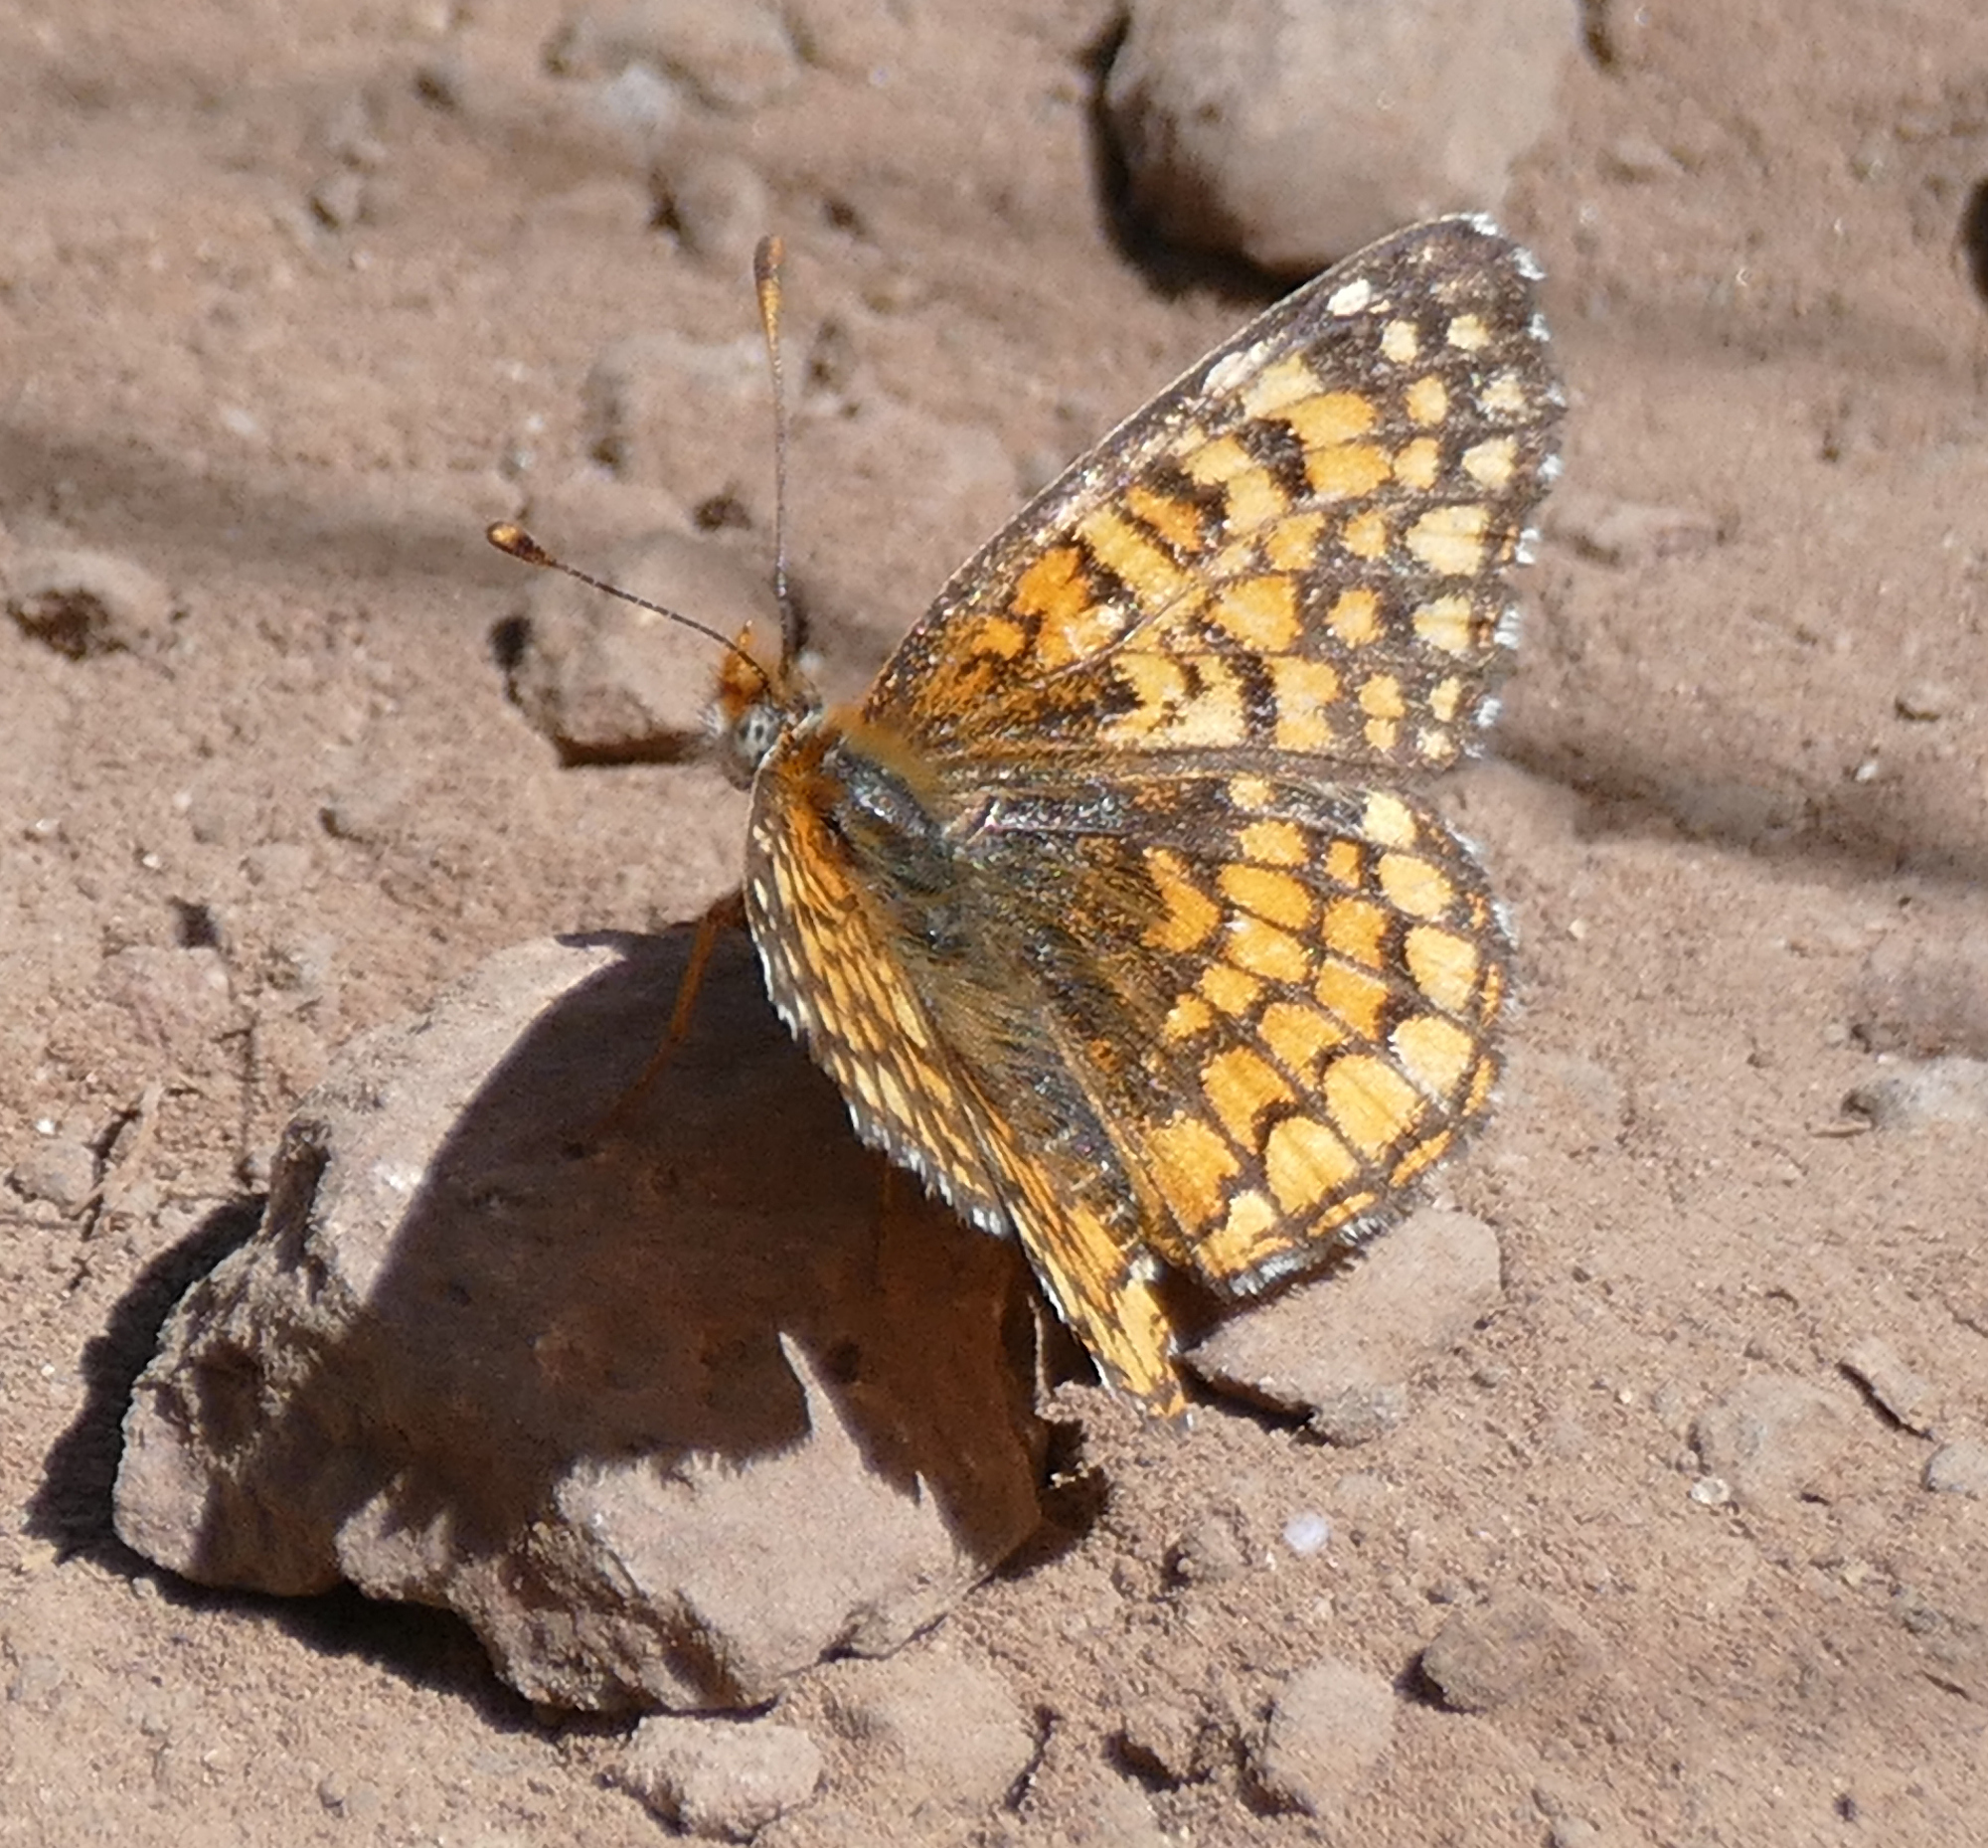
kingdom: Animalia
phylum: Arthropoda
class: Insecta
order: Lepidoptera
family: Nymphalidae
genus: Chlosyne
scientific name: Chlosyne acastus
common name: Sagebrush checkerspot
